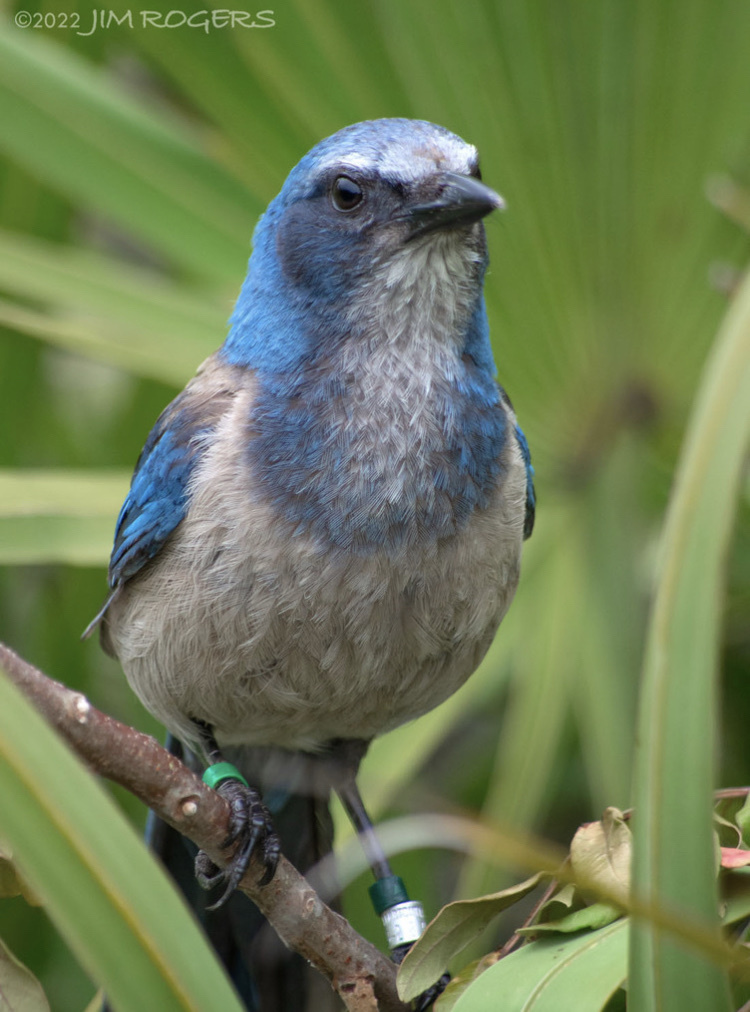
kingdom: Animalia
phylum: Chordata
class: Aves
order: Passeriformes
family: Corvidae
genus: Aphelocoma
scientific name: Aphelocoma coerulescens
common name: Florida scrub jay
